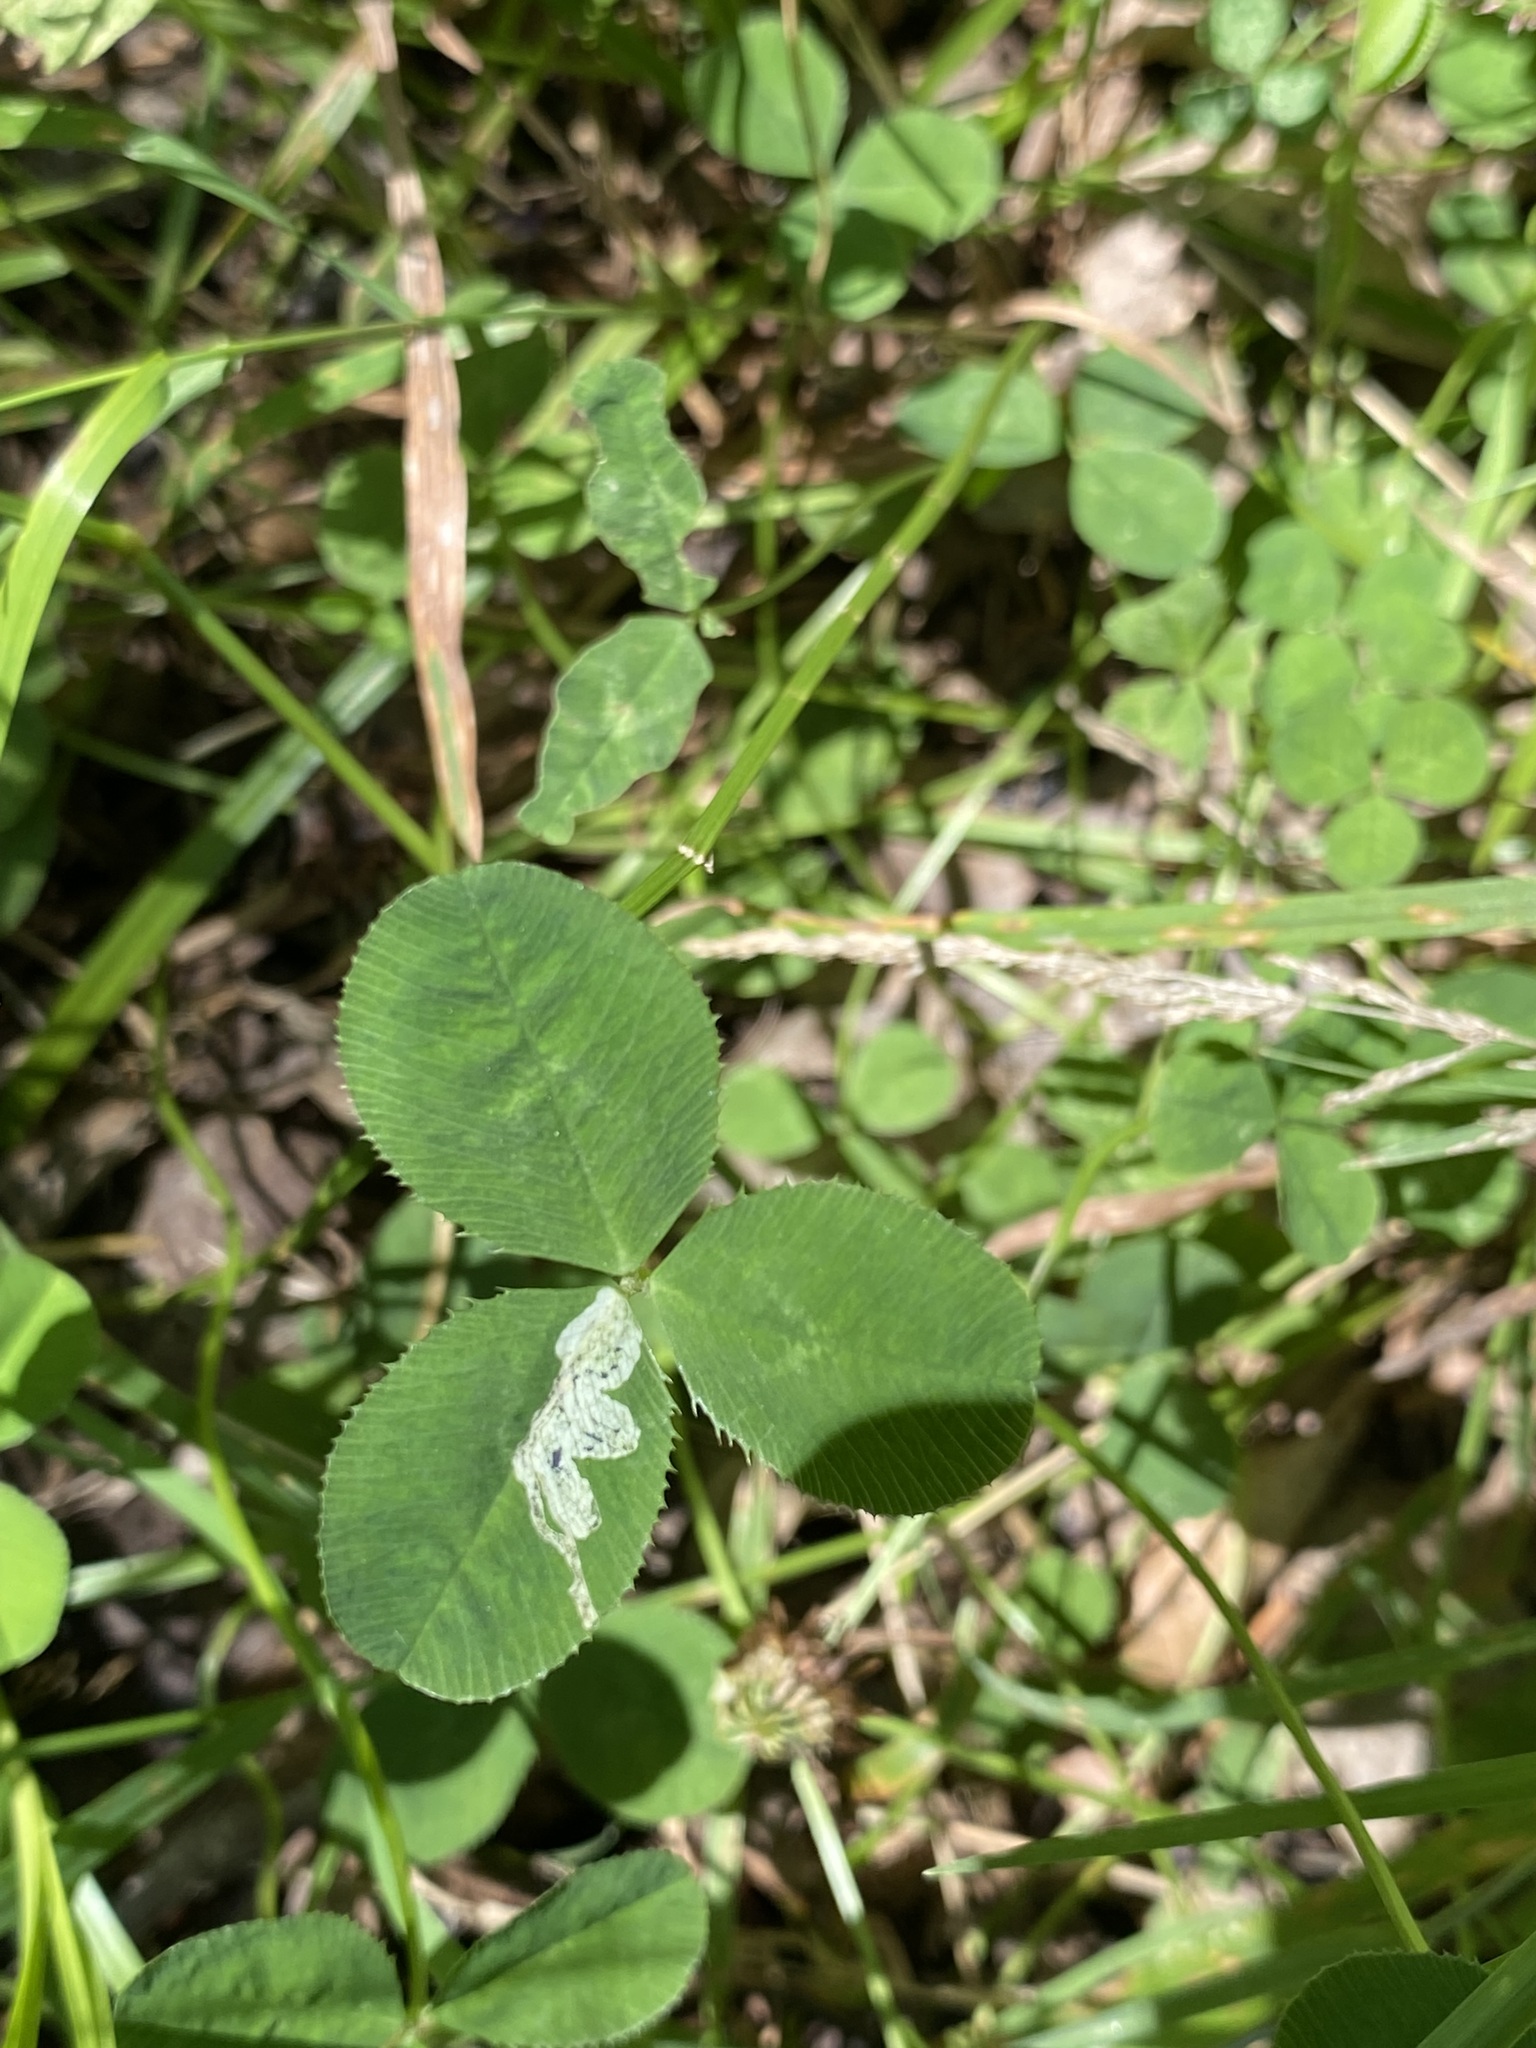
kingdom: Animalia
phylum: Arthropoda
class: Insecta
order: Diptera
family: Agromyzidae
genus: Liriomyza
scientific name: Liriomyza fricki
